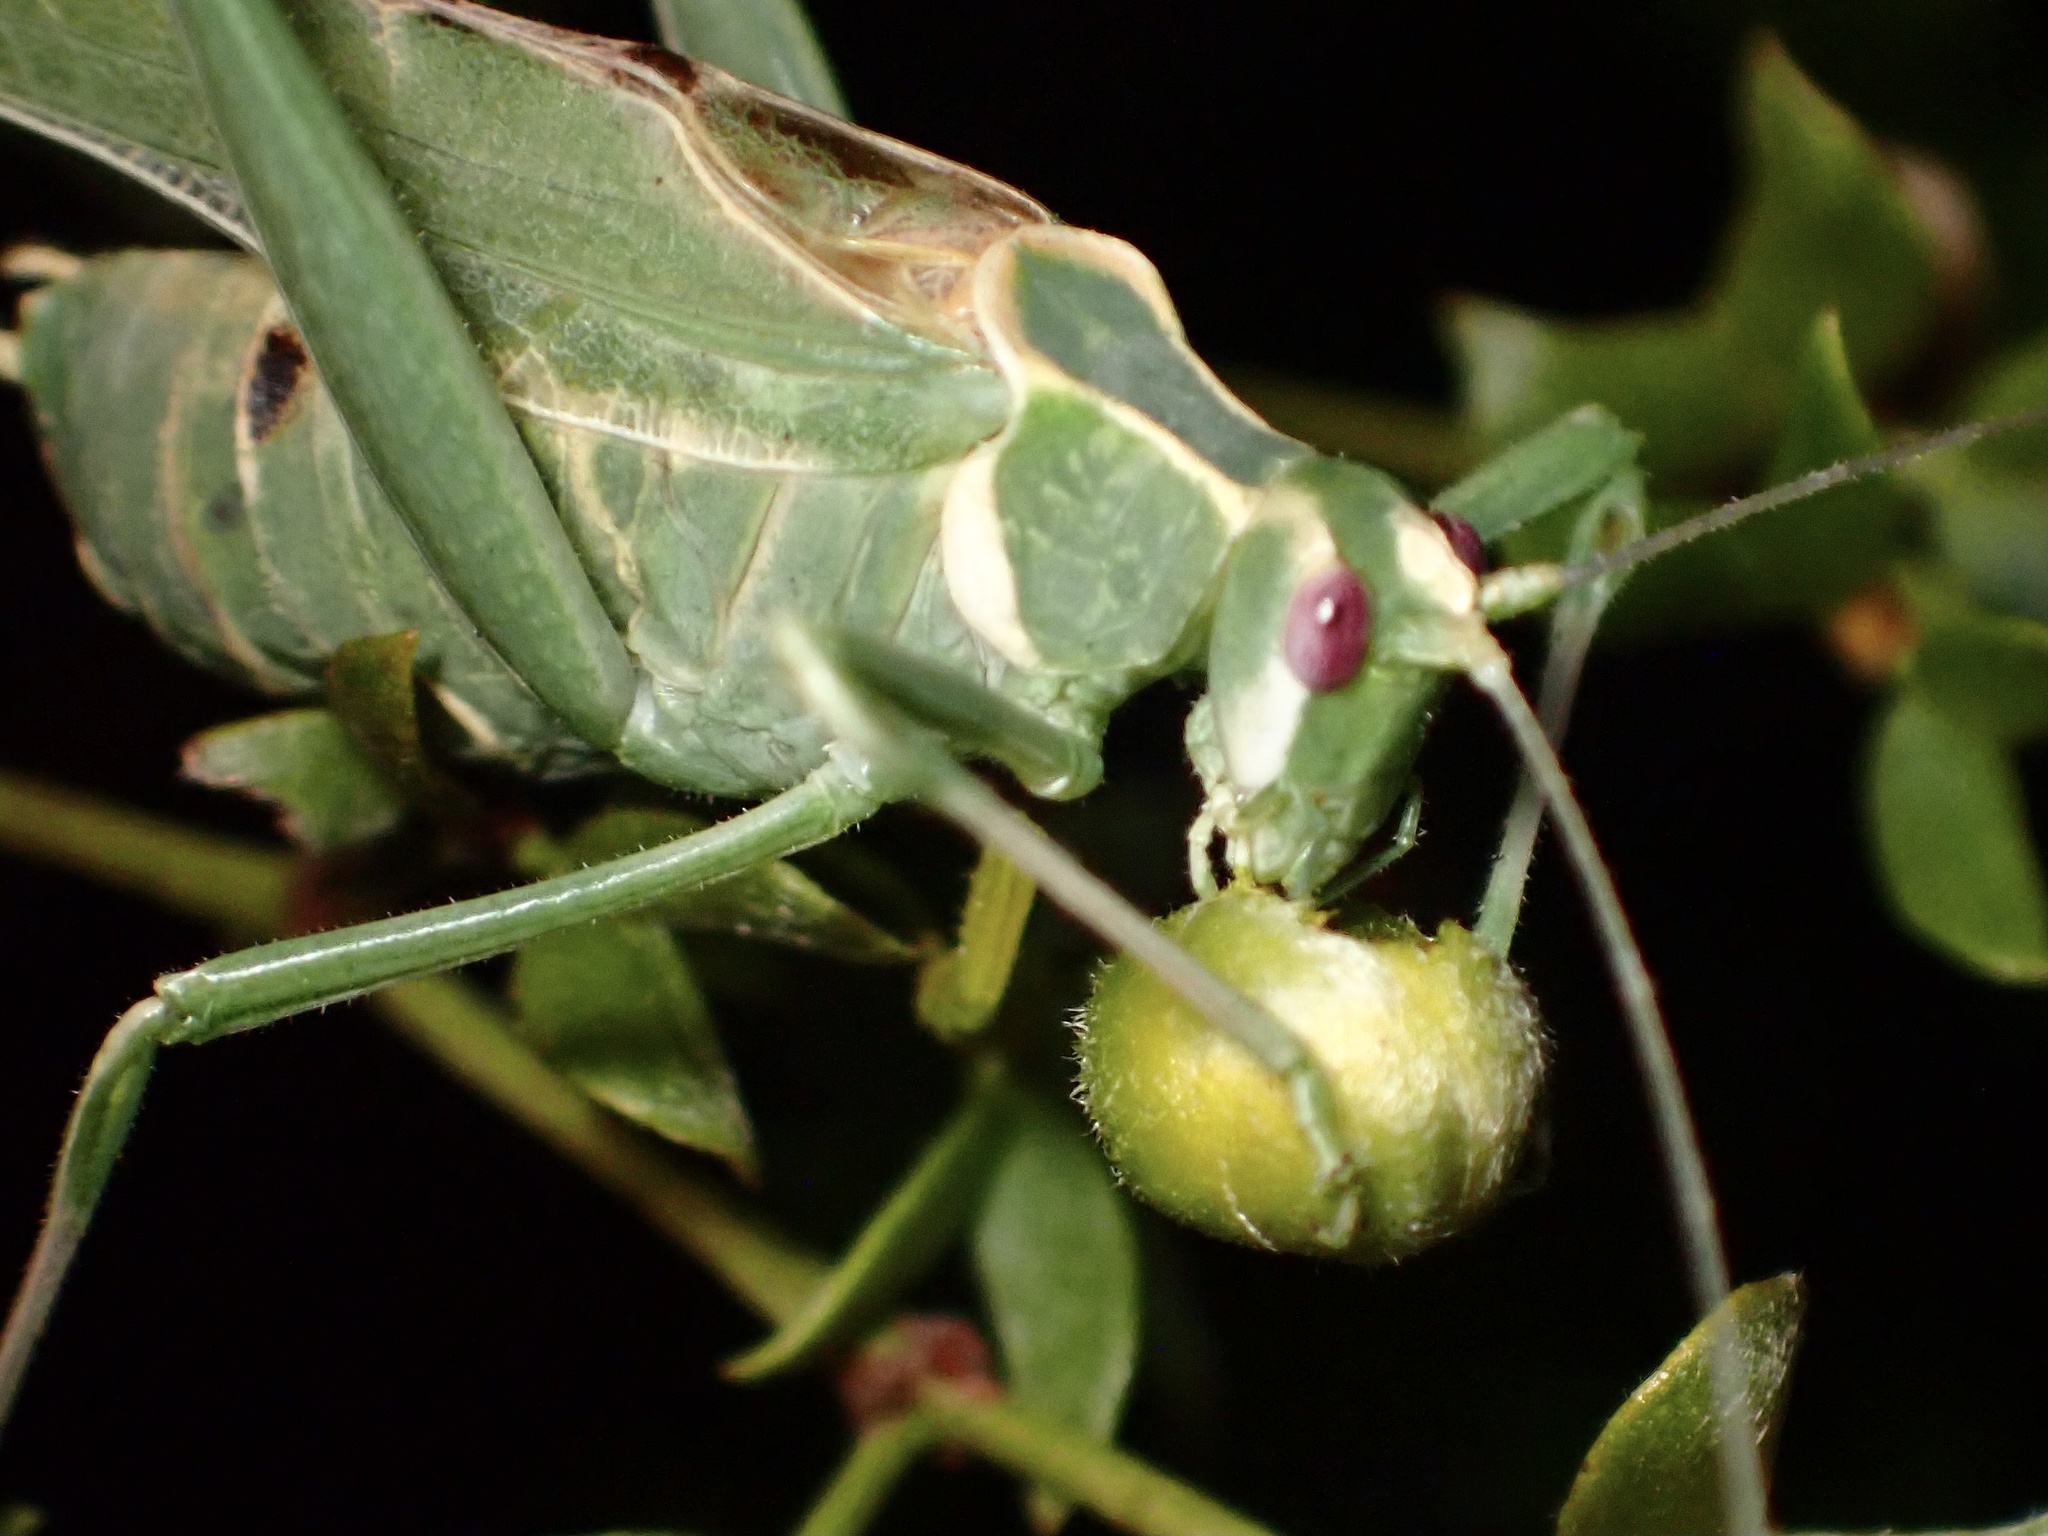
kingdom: Animalia
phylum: Arthropoda
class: Insecta
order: Orthoptera
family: Tettigoniidae
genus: Insara
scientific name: Insara elegans
